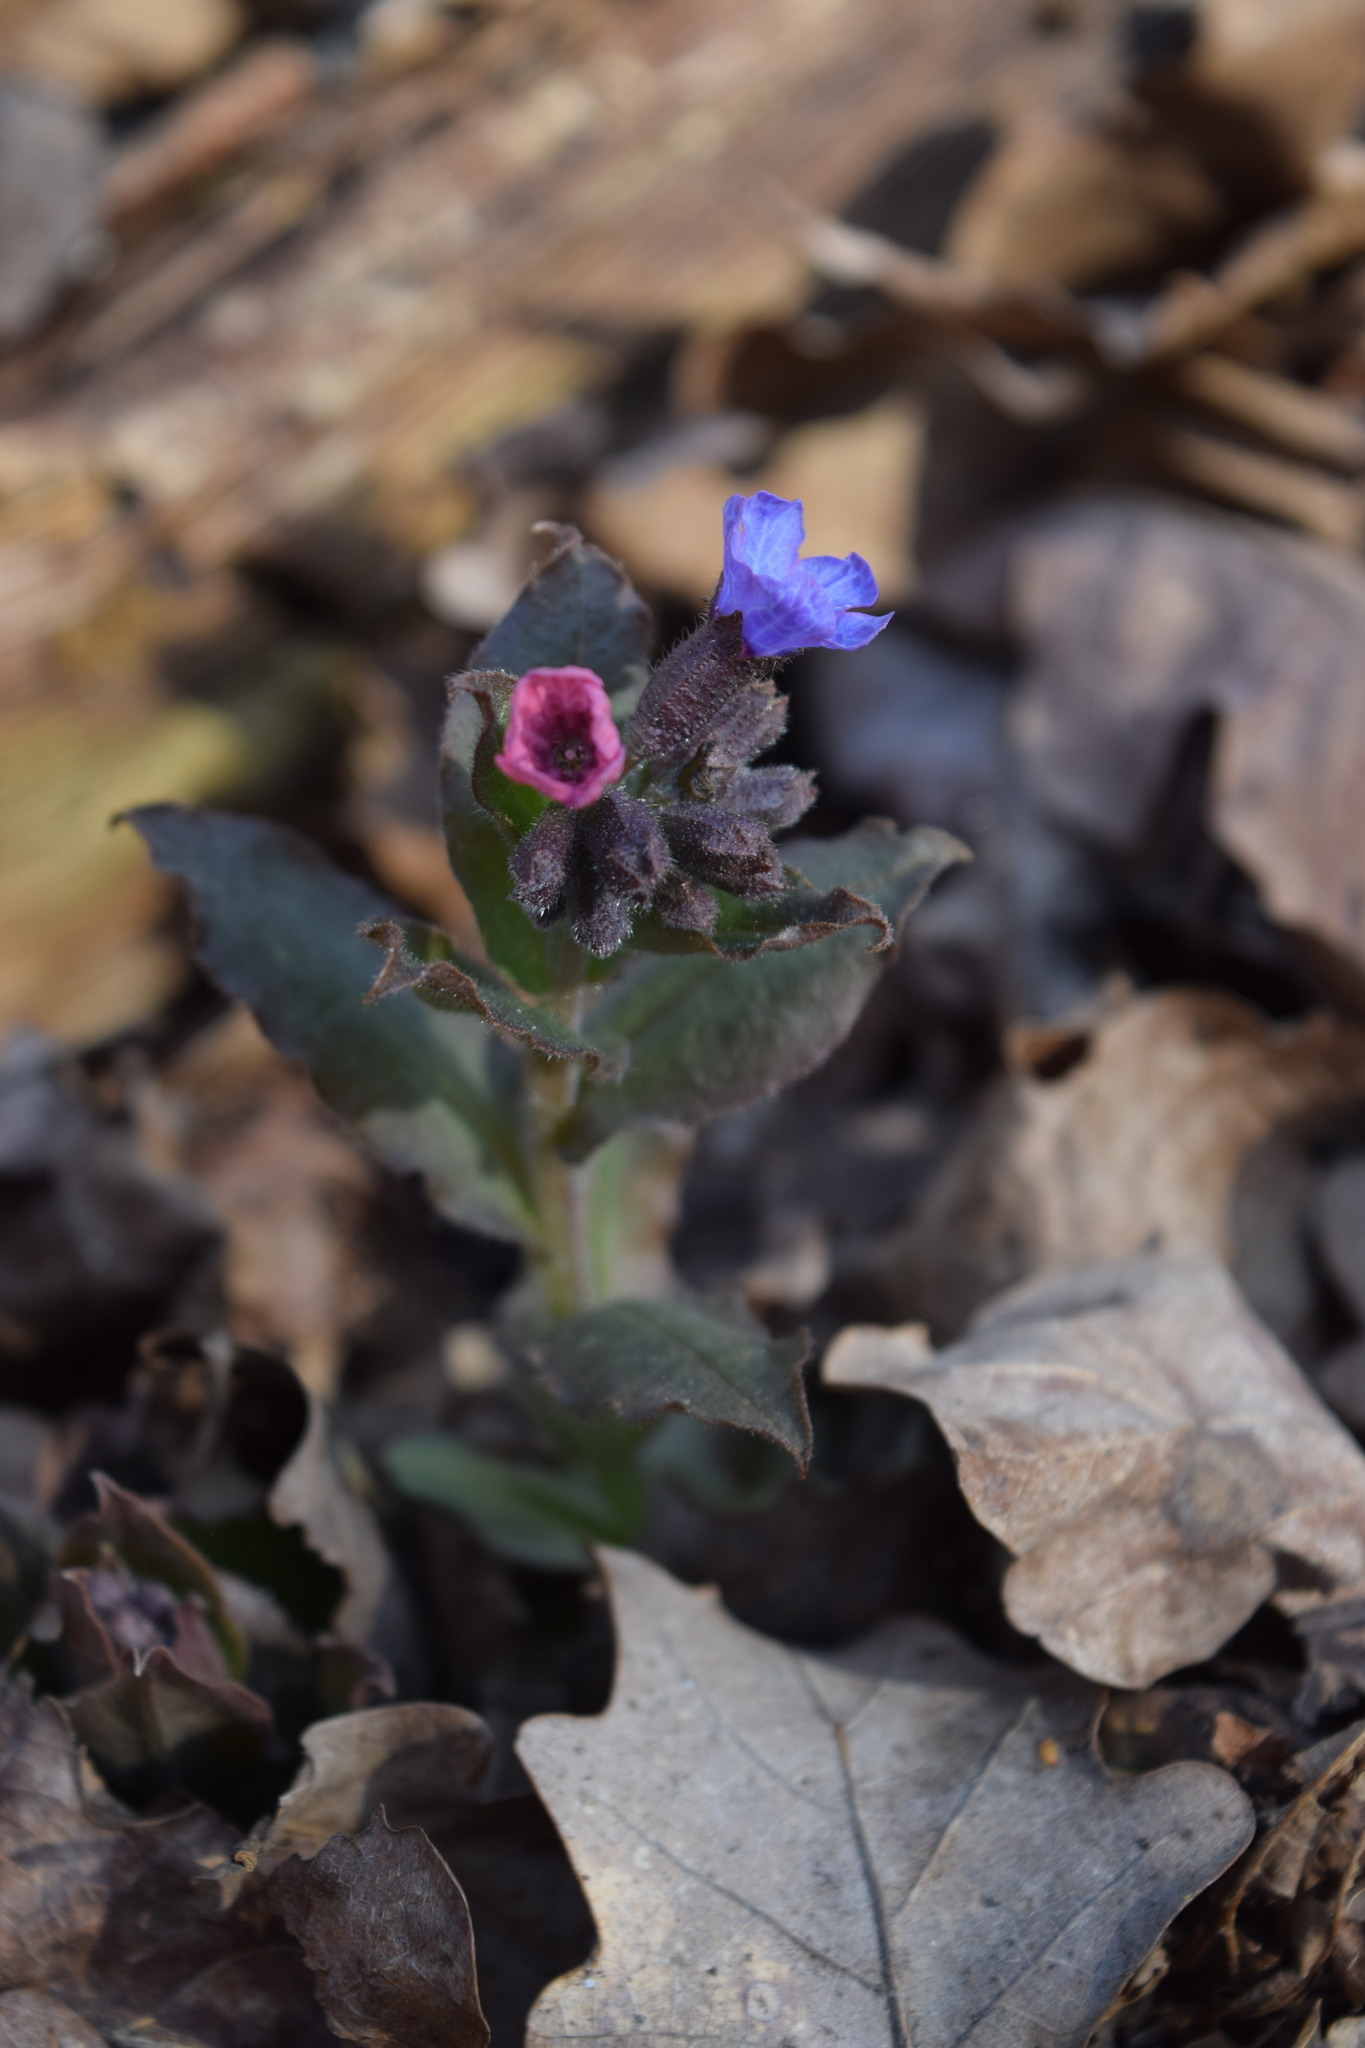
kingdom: Plantae
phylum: Tracheophyta
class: Magnoliopsida
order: Boraginales
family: Boraginaceae
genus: Pulmonaria
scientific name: Pulmonaria obscura
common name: Suffolk lungwort
